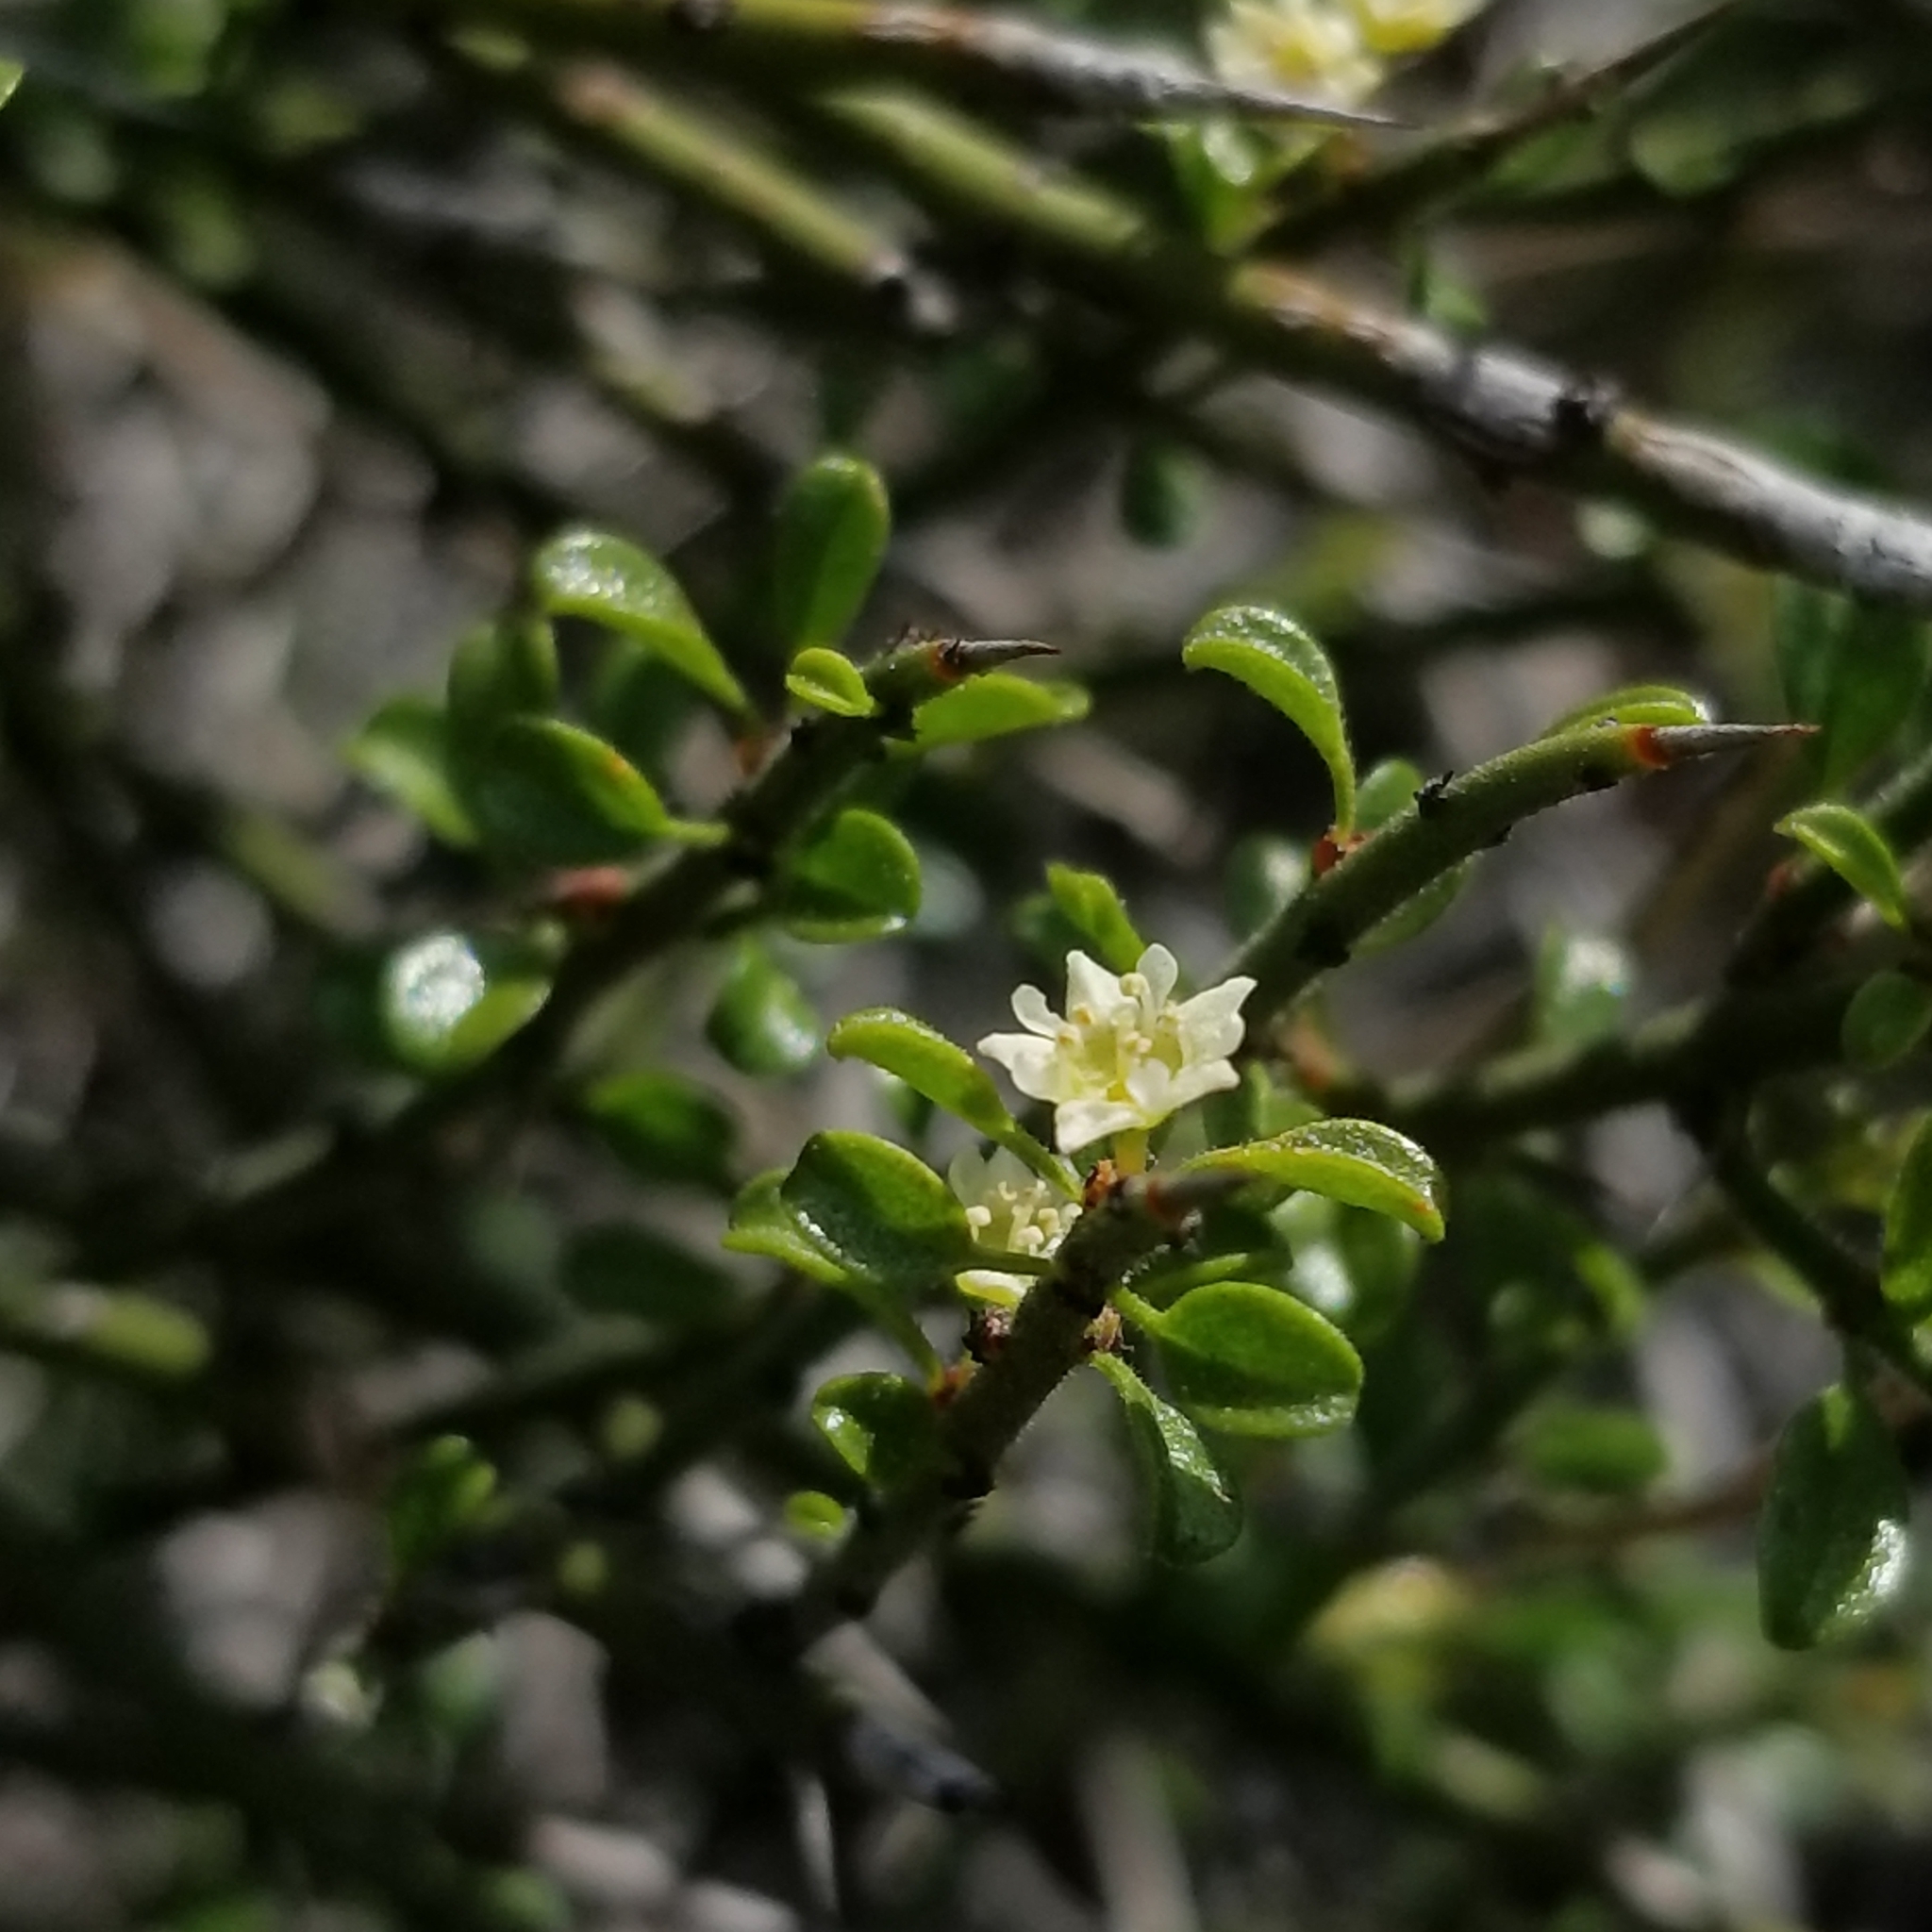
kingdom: Plantae
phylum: Tracheophyta
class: Magnoliopsida
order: Rosales
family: Rhamnaceae
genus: Adolphia
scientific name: Adolphia californica
